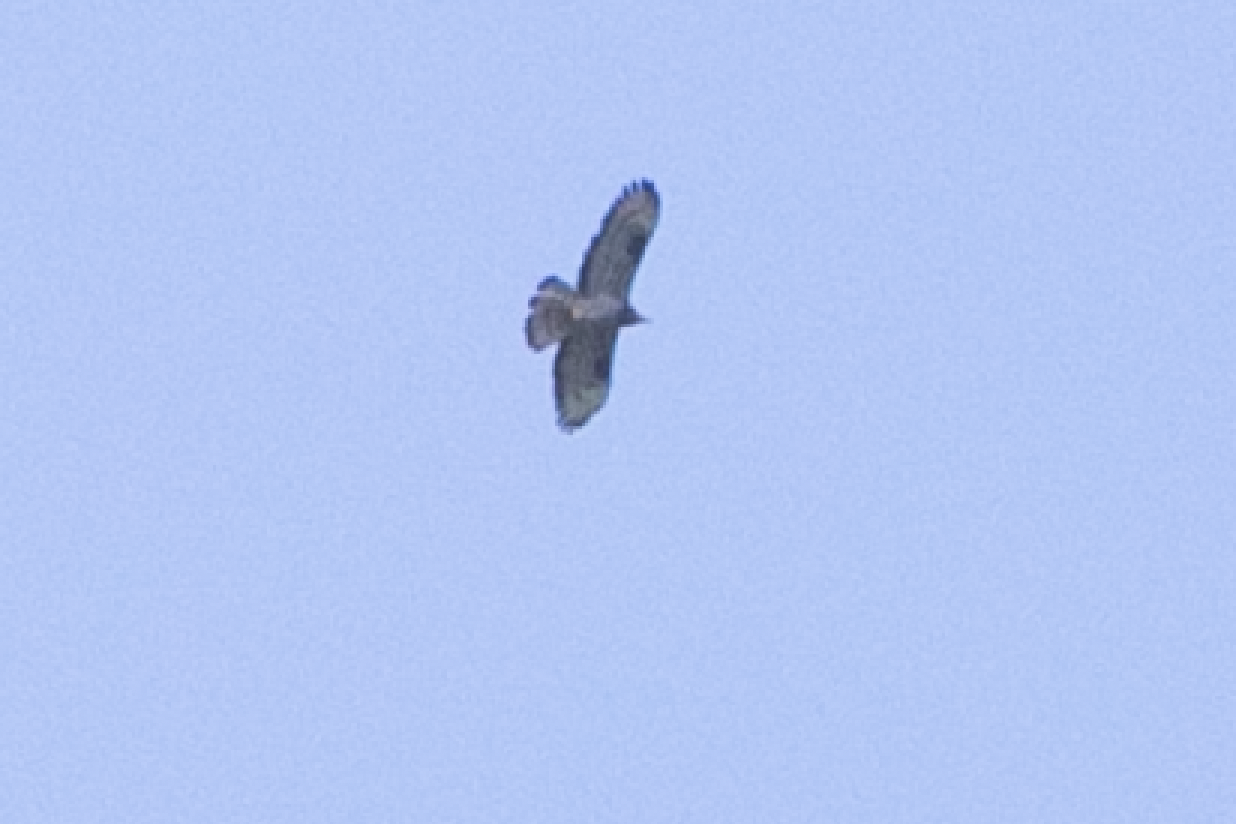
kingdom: Animalia
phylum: Chordata
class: Aves
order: Accipitriformes
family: Accipitridae
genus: Pernis
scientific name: Pernis apivorus
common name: European honey buzzard
